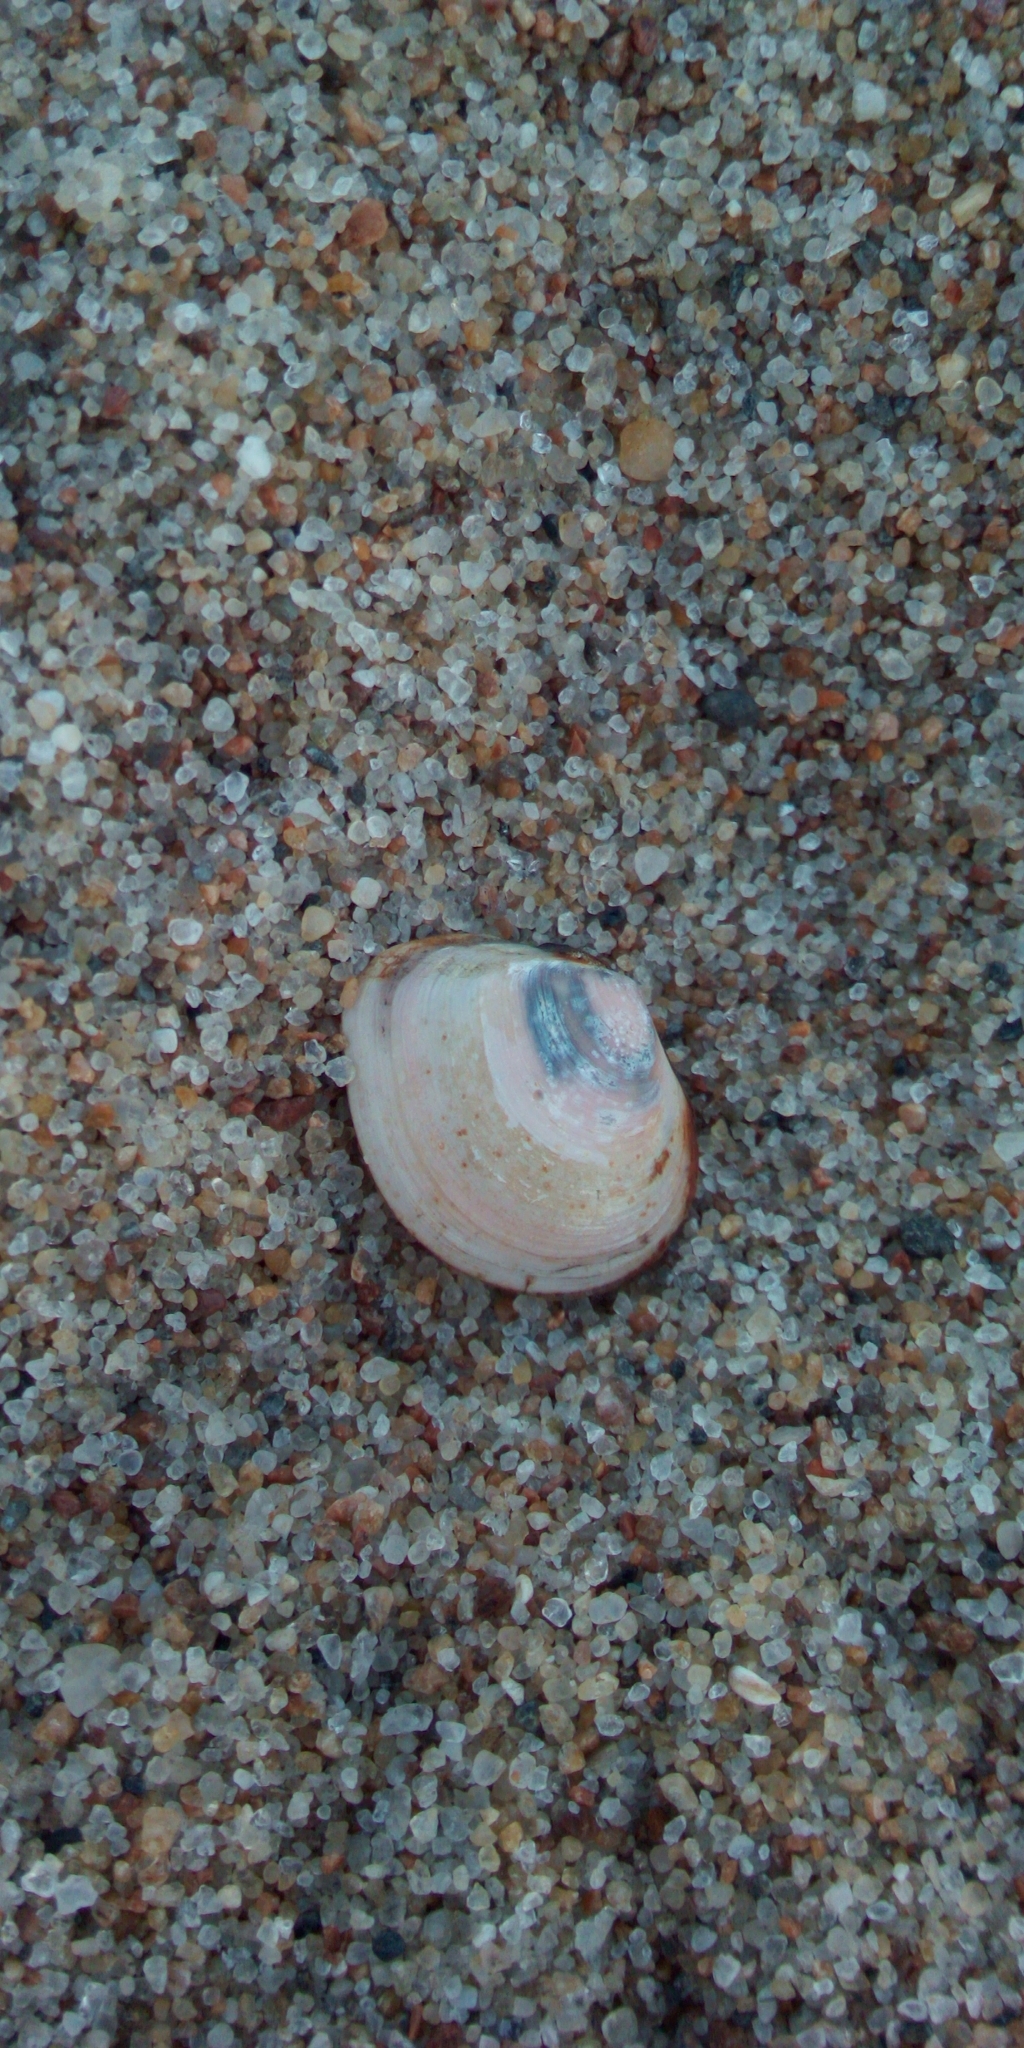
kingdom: Animalia
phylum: Mollusca
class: Bivalvia
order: Cardiida
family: Tellinidae
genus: Macoma
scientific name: Macoma balthica
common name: Baltic tellin
